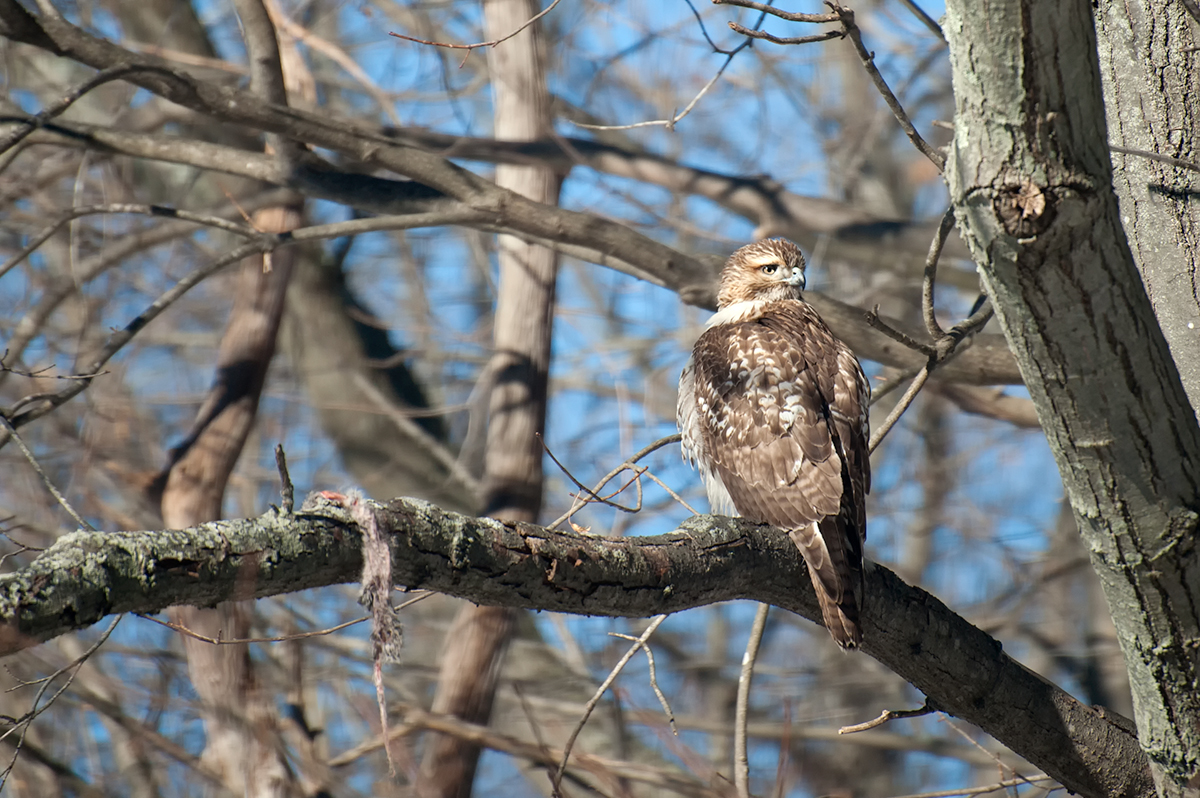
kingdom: Animalia
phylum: Chordata
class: Aves
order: Accipitriformes
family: Accipitridae
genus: Buteo
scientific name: Buteo jamaicensis
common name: Red-tailed hawk
